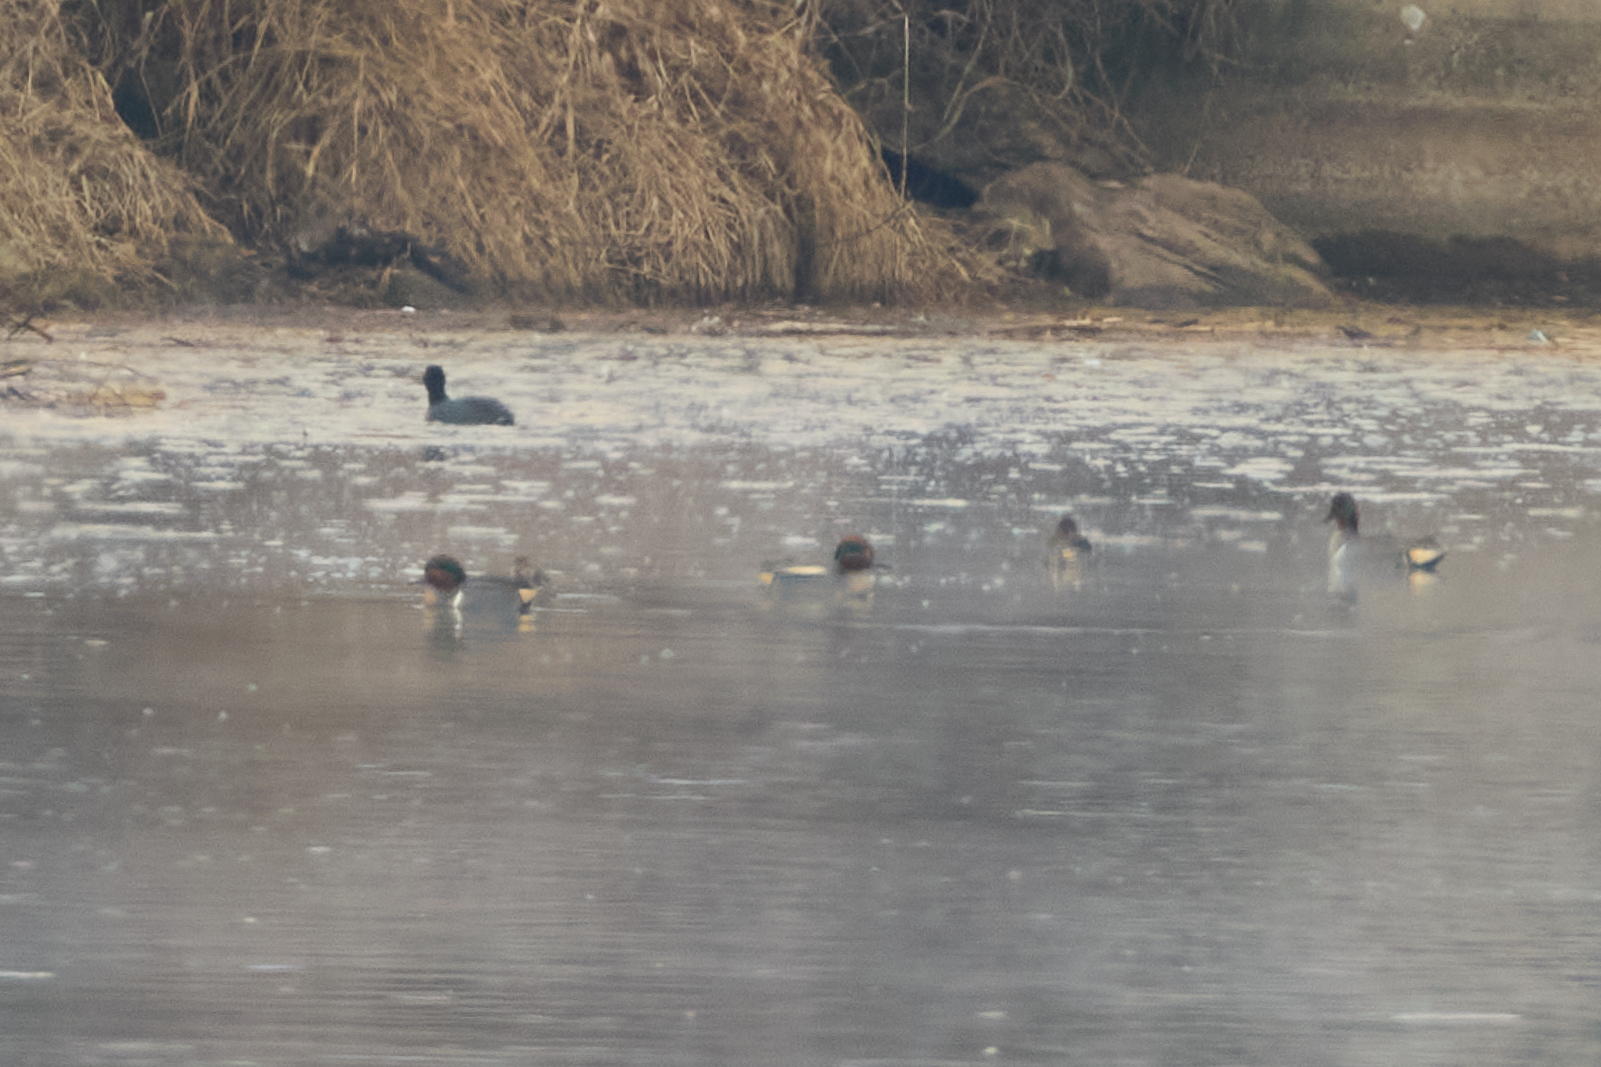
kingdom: Animalia
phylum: Chordata
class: Aves
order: Anseriformes
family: Anatidae
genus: Anas
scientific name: Anas crecca
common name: Eurasian teal
